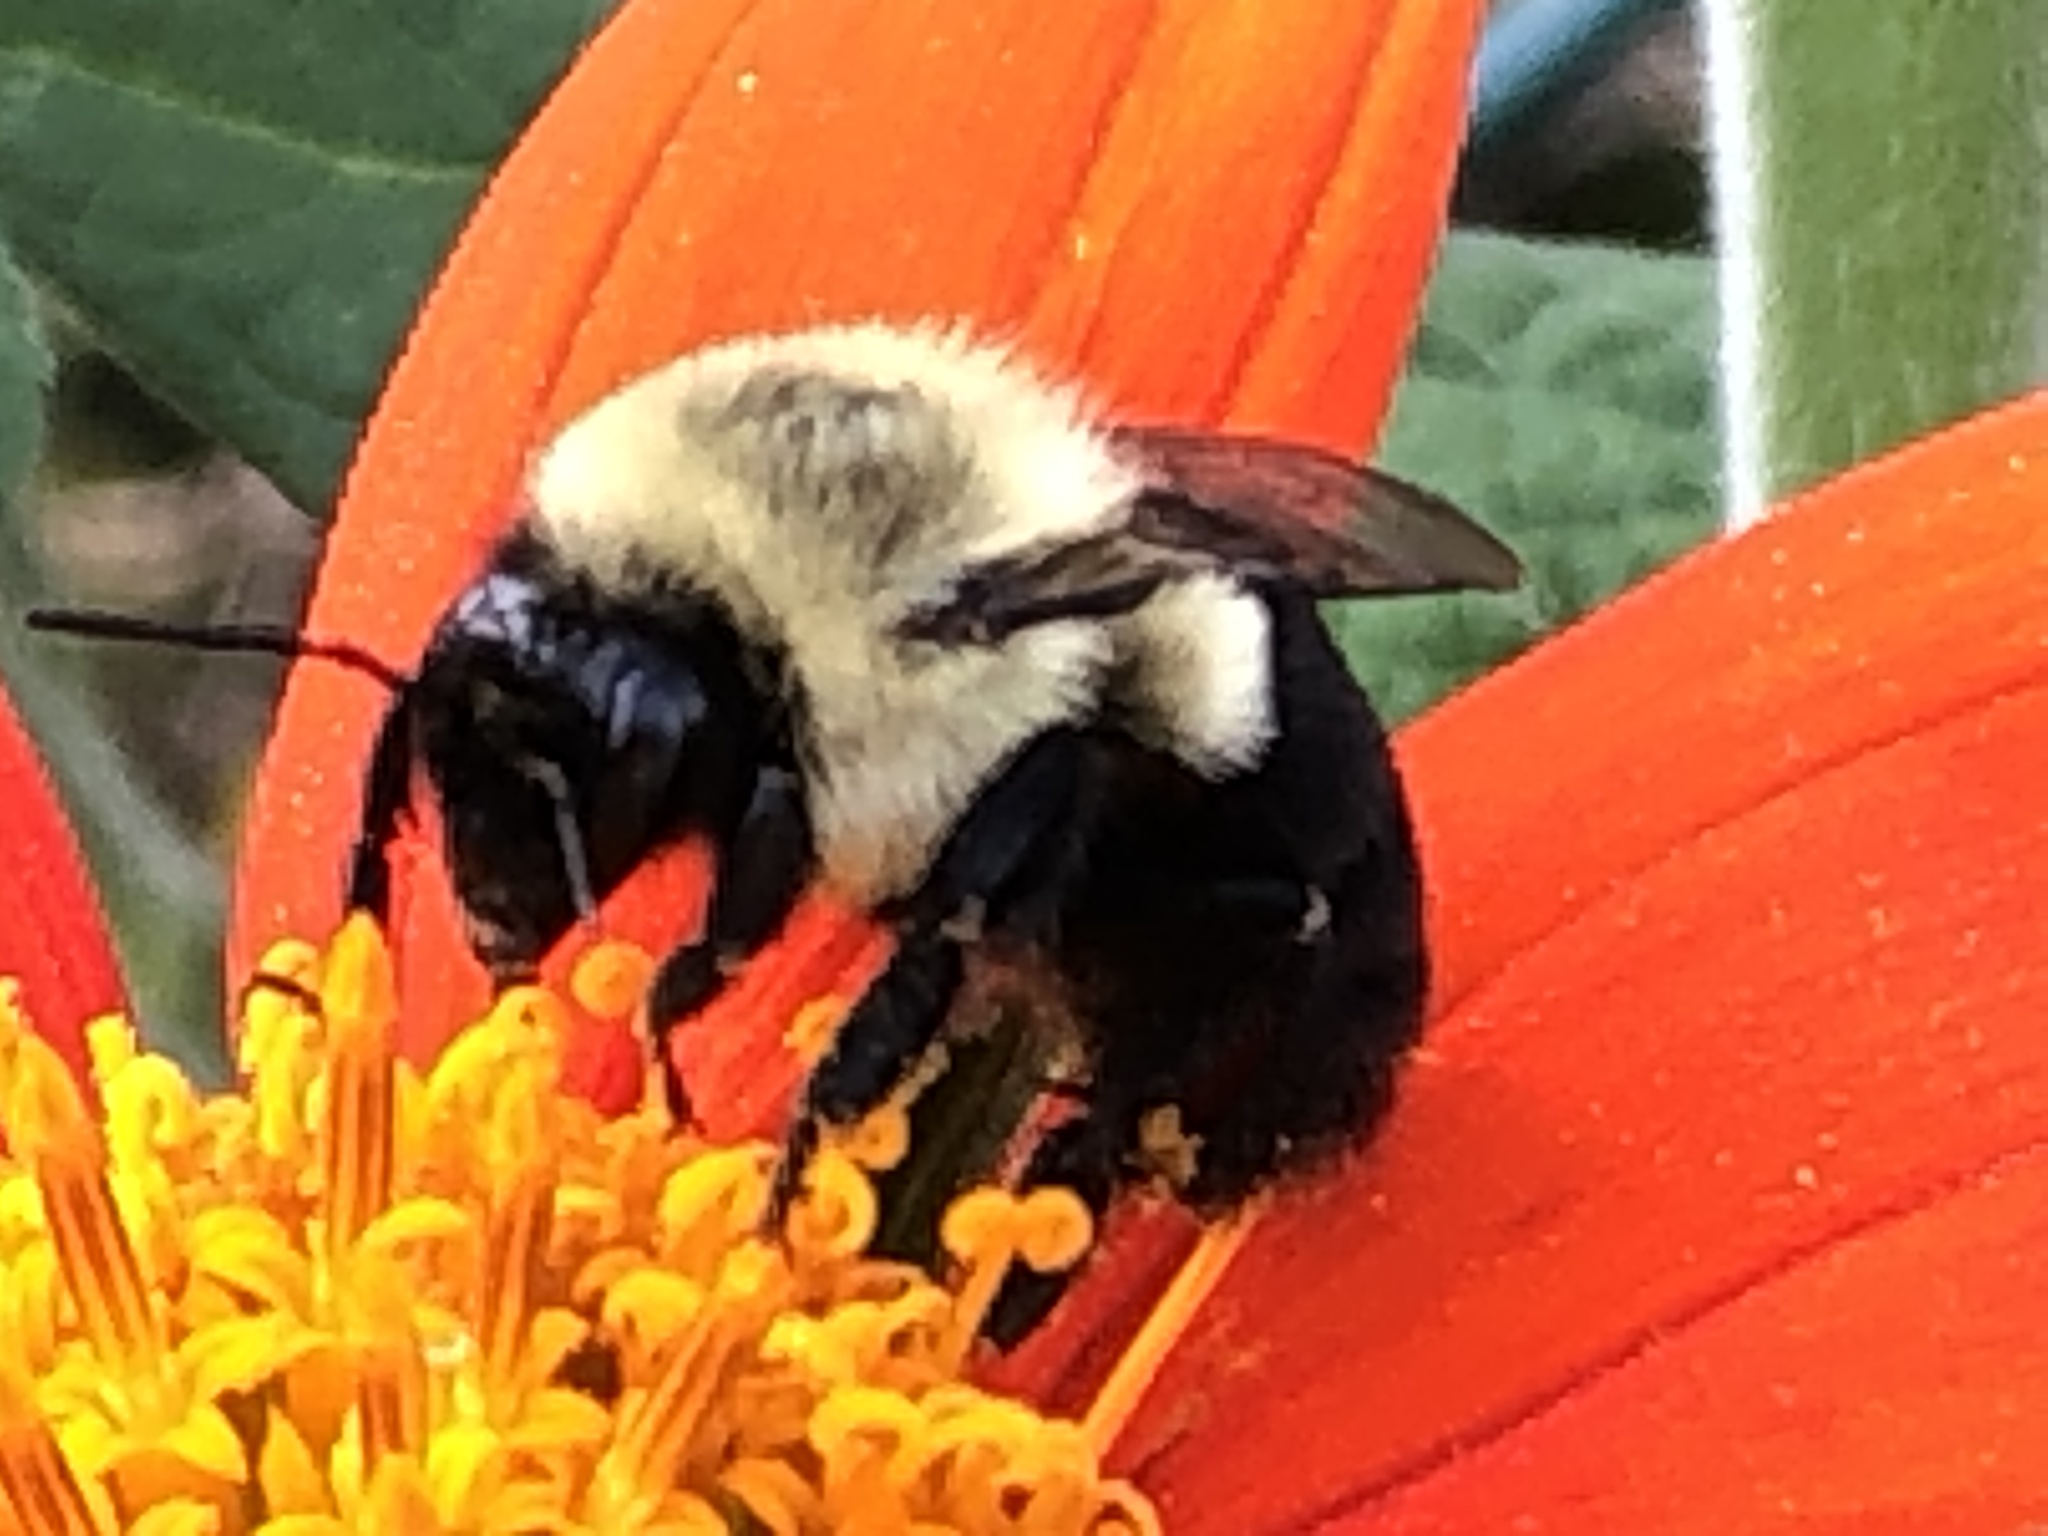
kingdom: Animalia
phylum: Arthropoda
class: Insecta
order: Hymenoptera
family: Apidae
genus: Bombus
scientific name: Bombus impatiens
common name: Common eastern bumble bee
